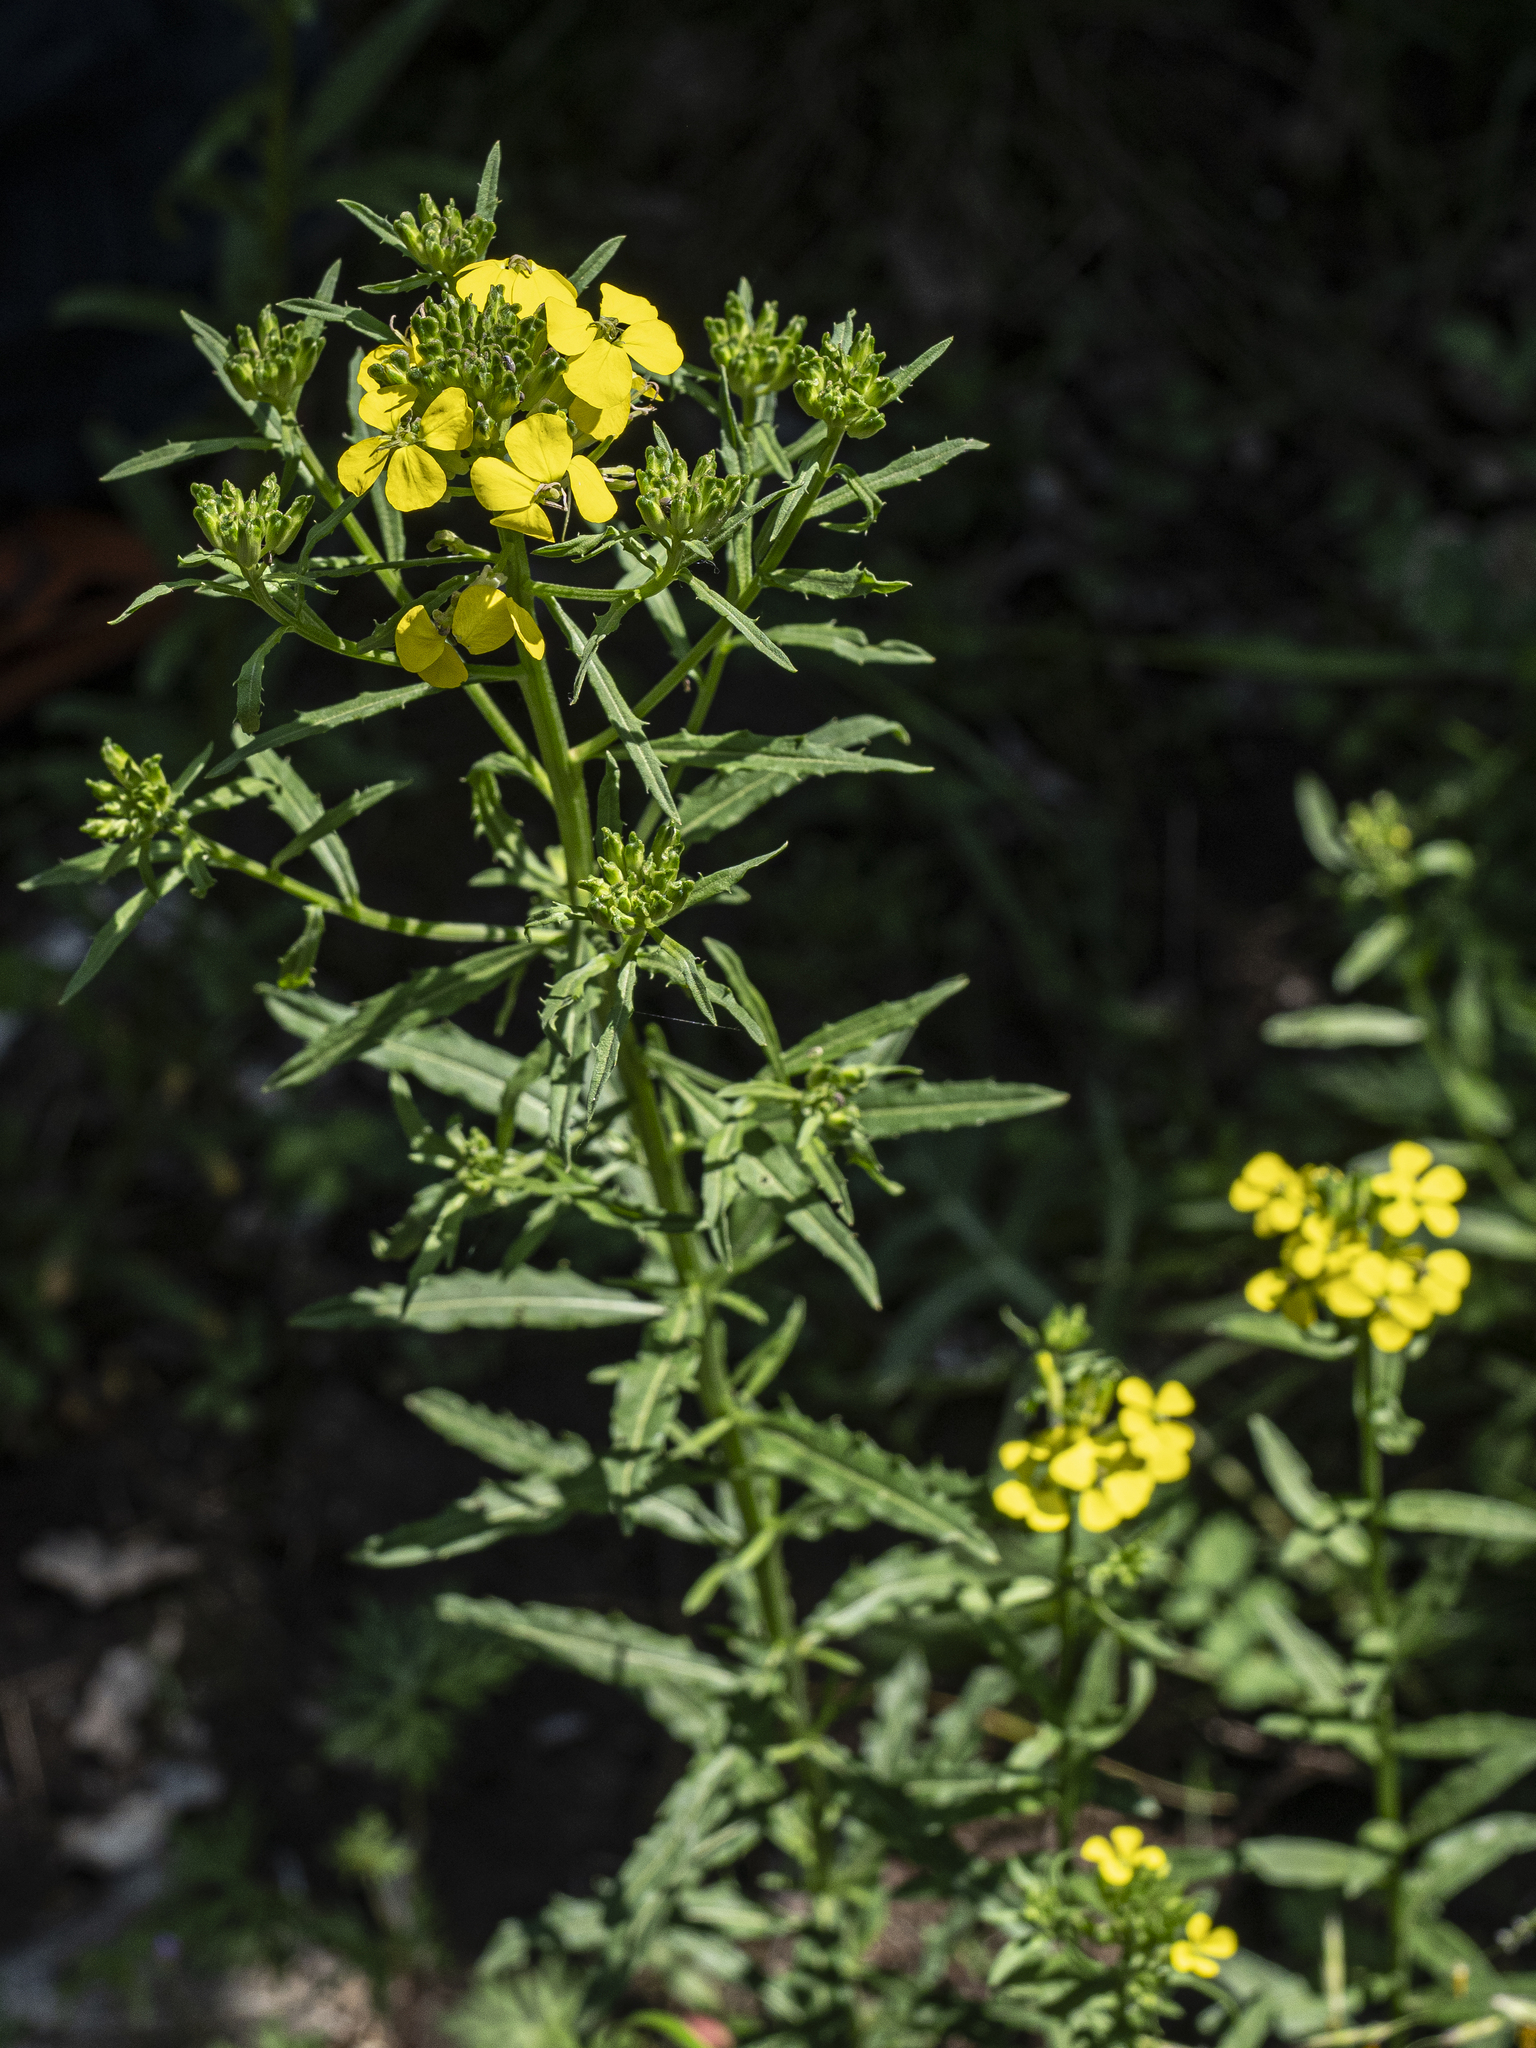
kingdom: Plantae
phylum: Tracheophyta
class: Magnoliopsida
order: Brassicales
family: Brassicaceae
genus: Erysimum
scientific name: Erysimum odoratum
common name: Smelly wallflower
